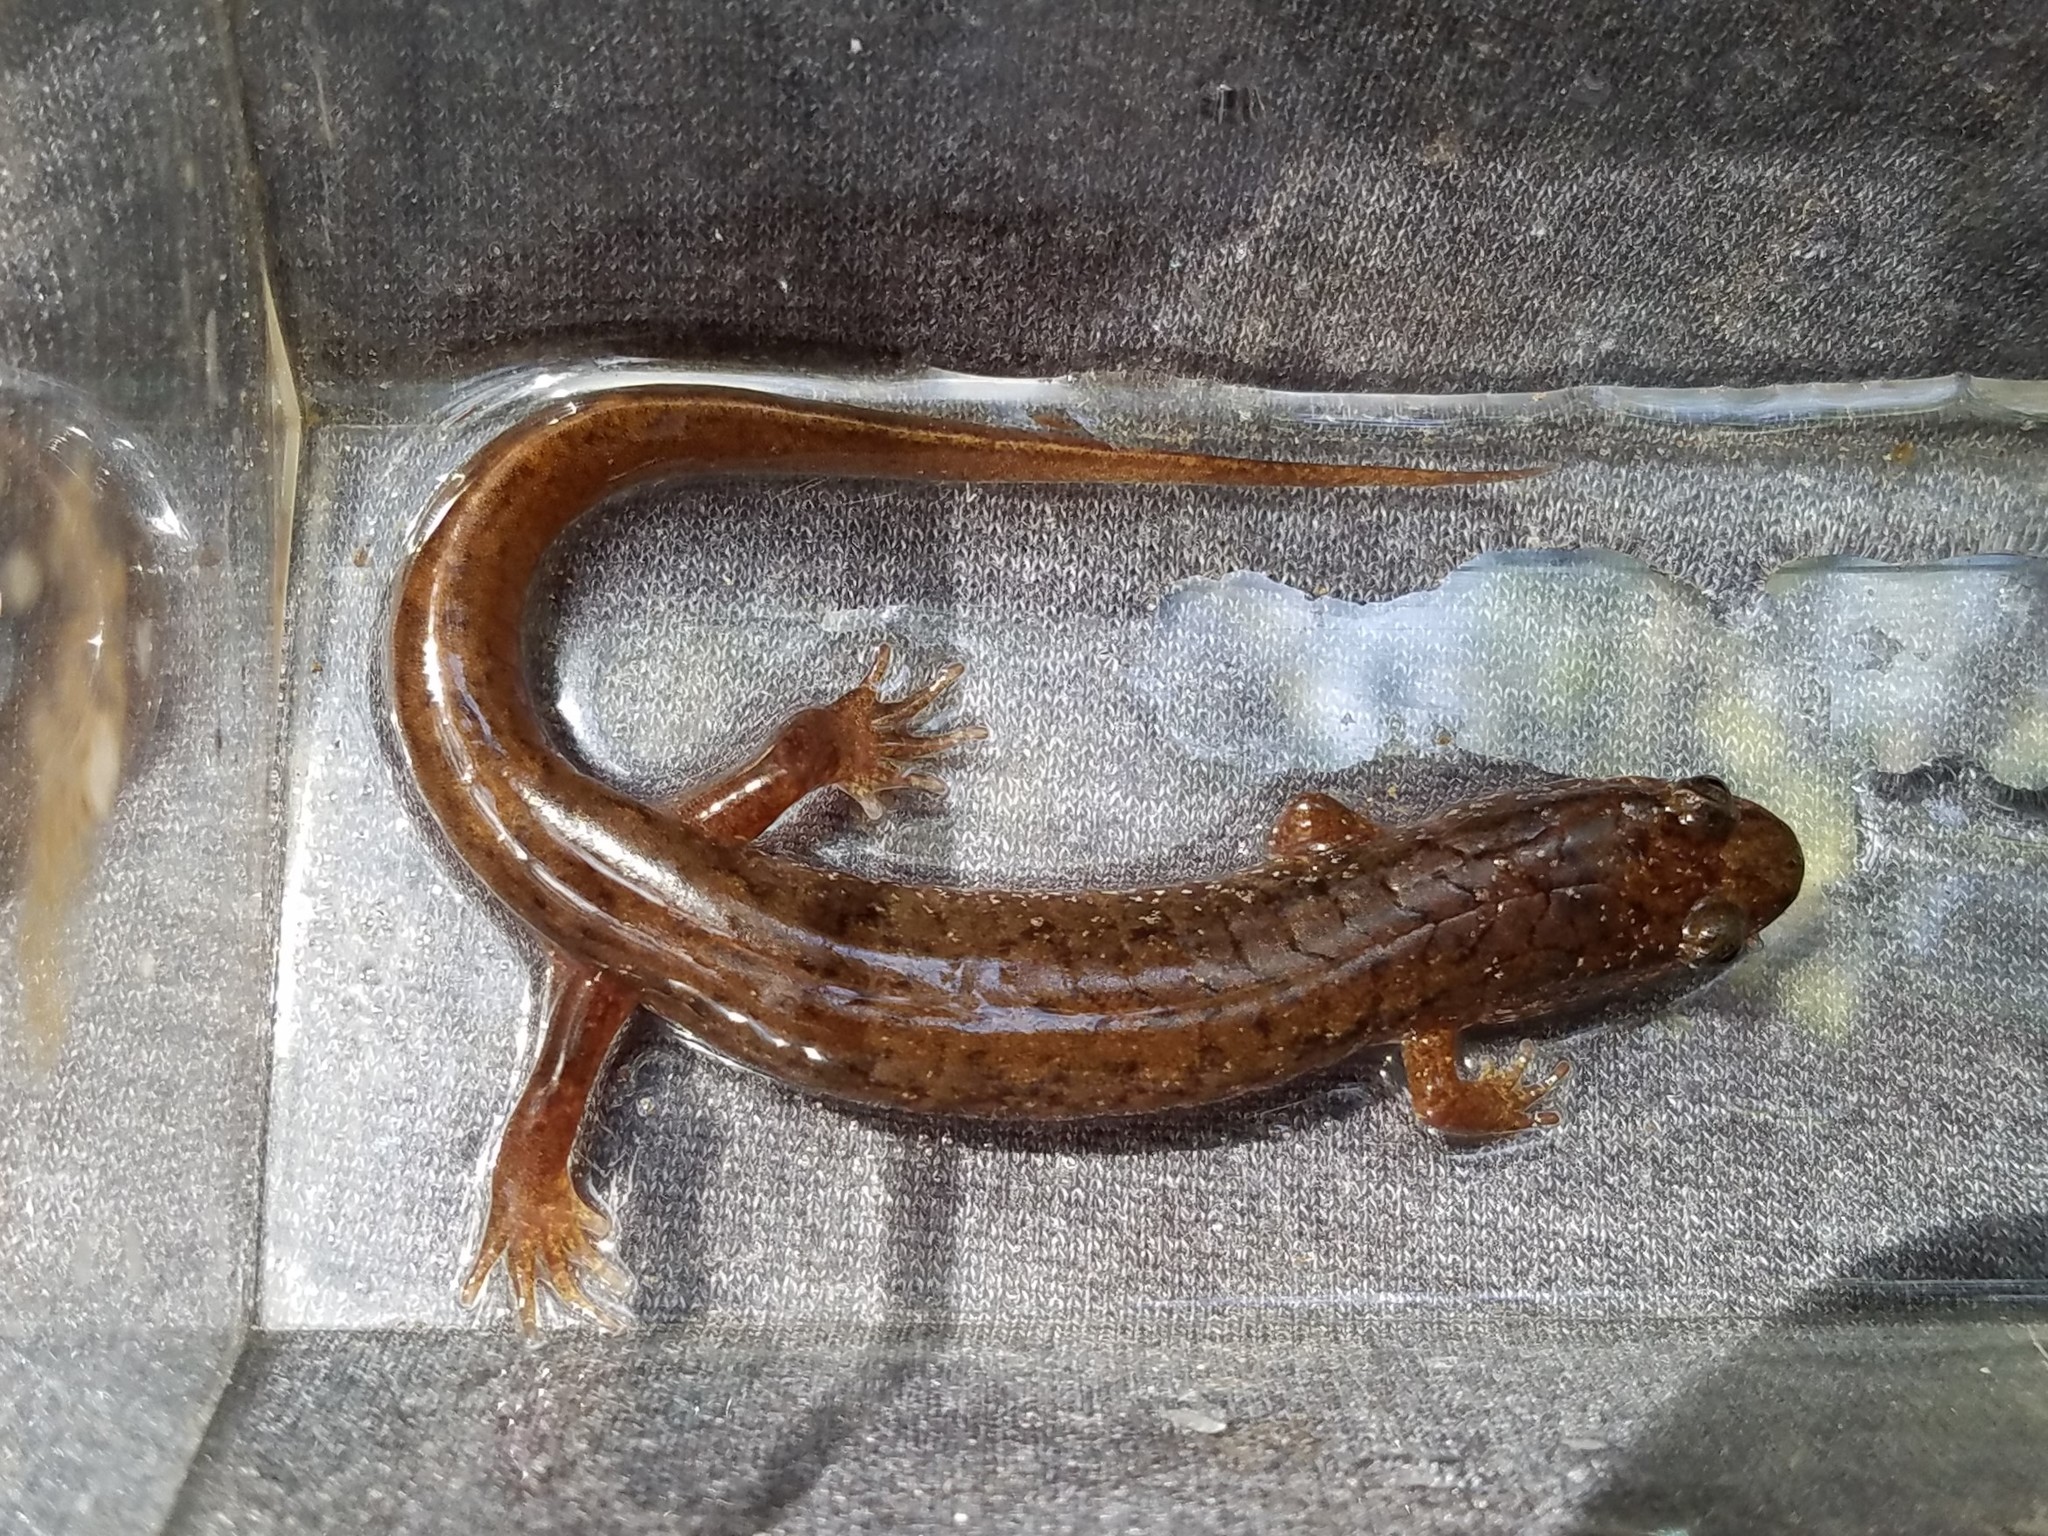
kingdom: Animalia
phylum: Chordata
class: Amphibia
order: Caudata
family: Plethodontidae
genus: Desmognathus
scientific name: Desmognathus monticola
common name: Seal salamander
